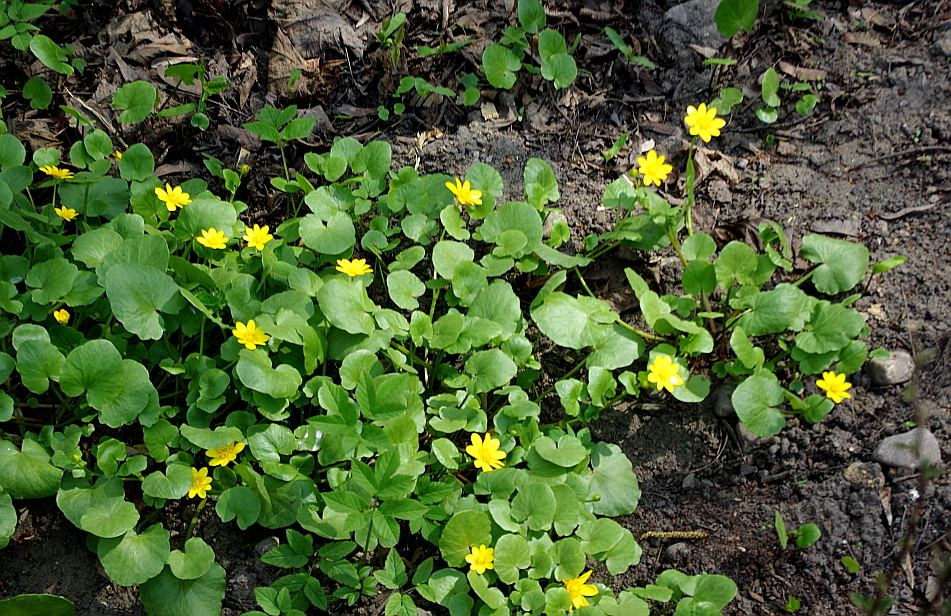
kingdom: Plantae
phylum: Tracheophyta
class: Magnoliopsida
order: Ranunculales
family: Ranunculaceae
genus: Ficaria
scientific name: Ficaria verna
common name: Lesser celandine
